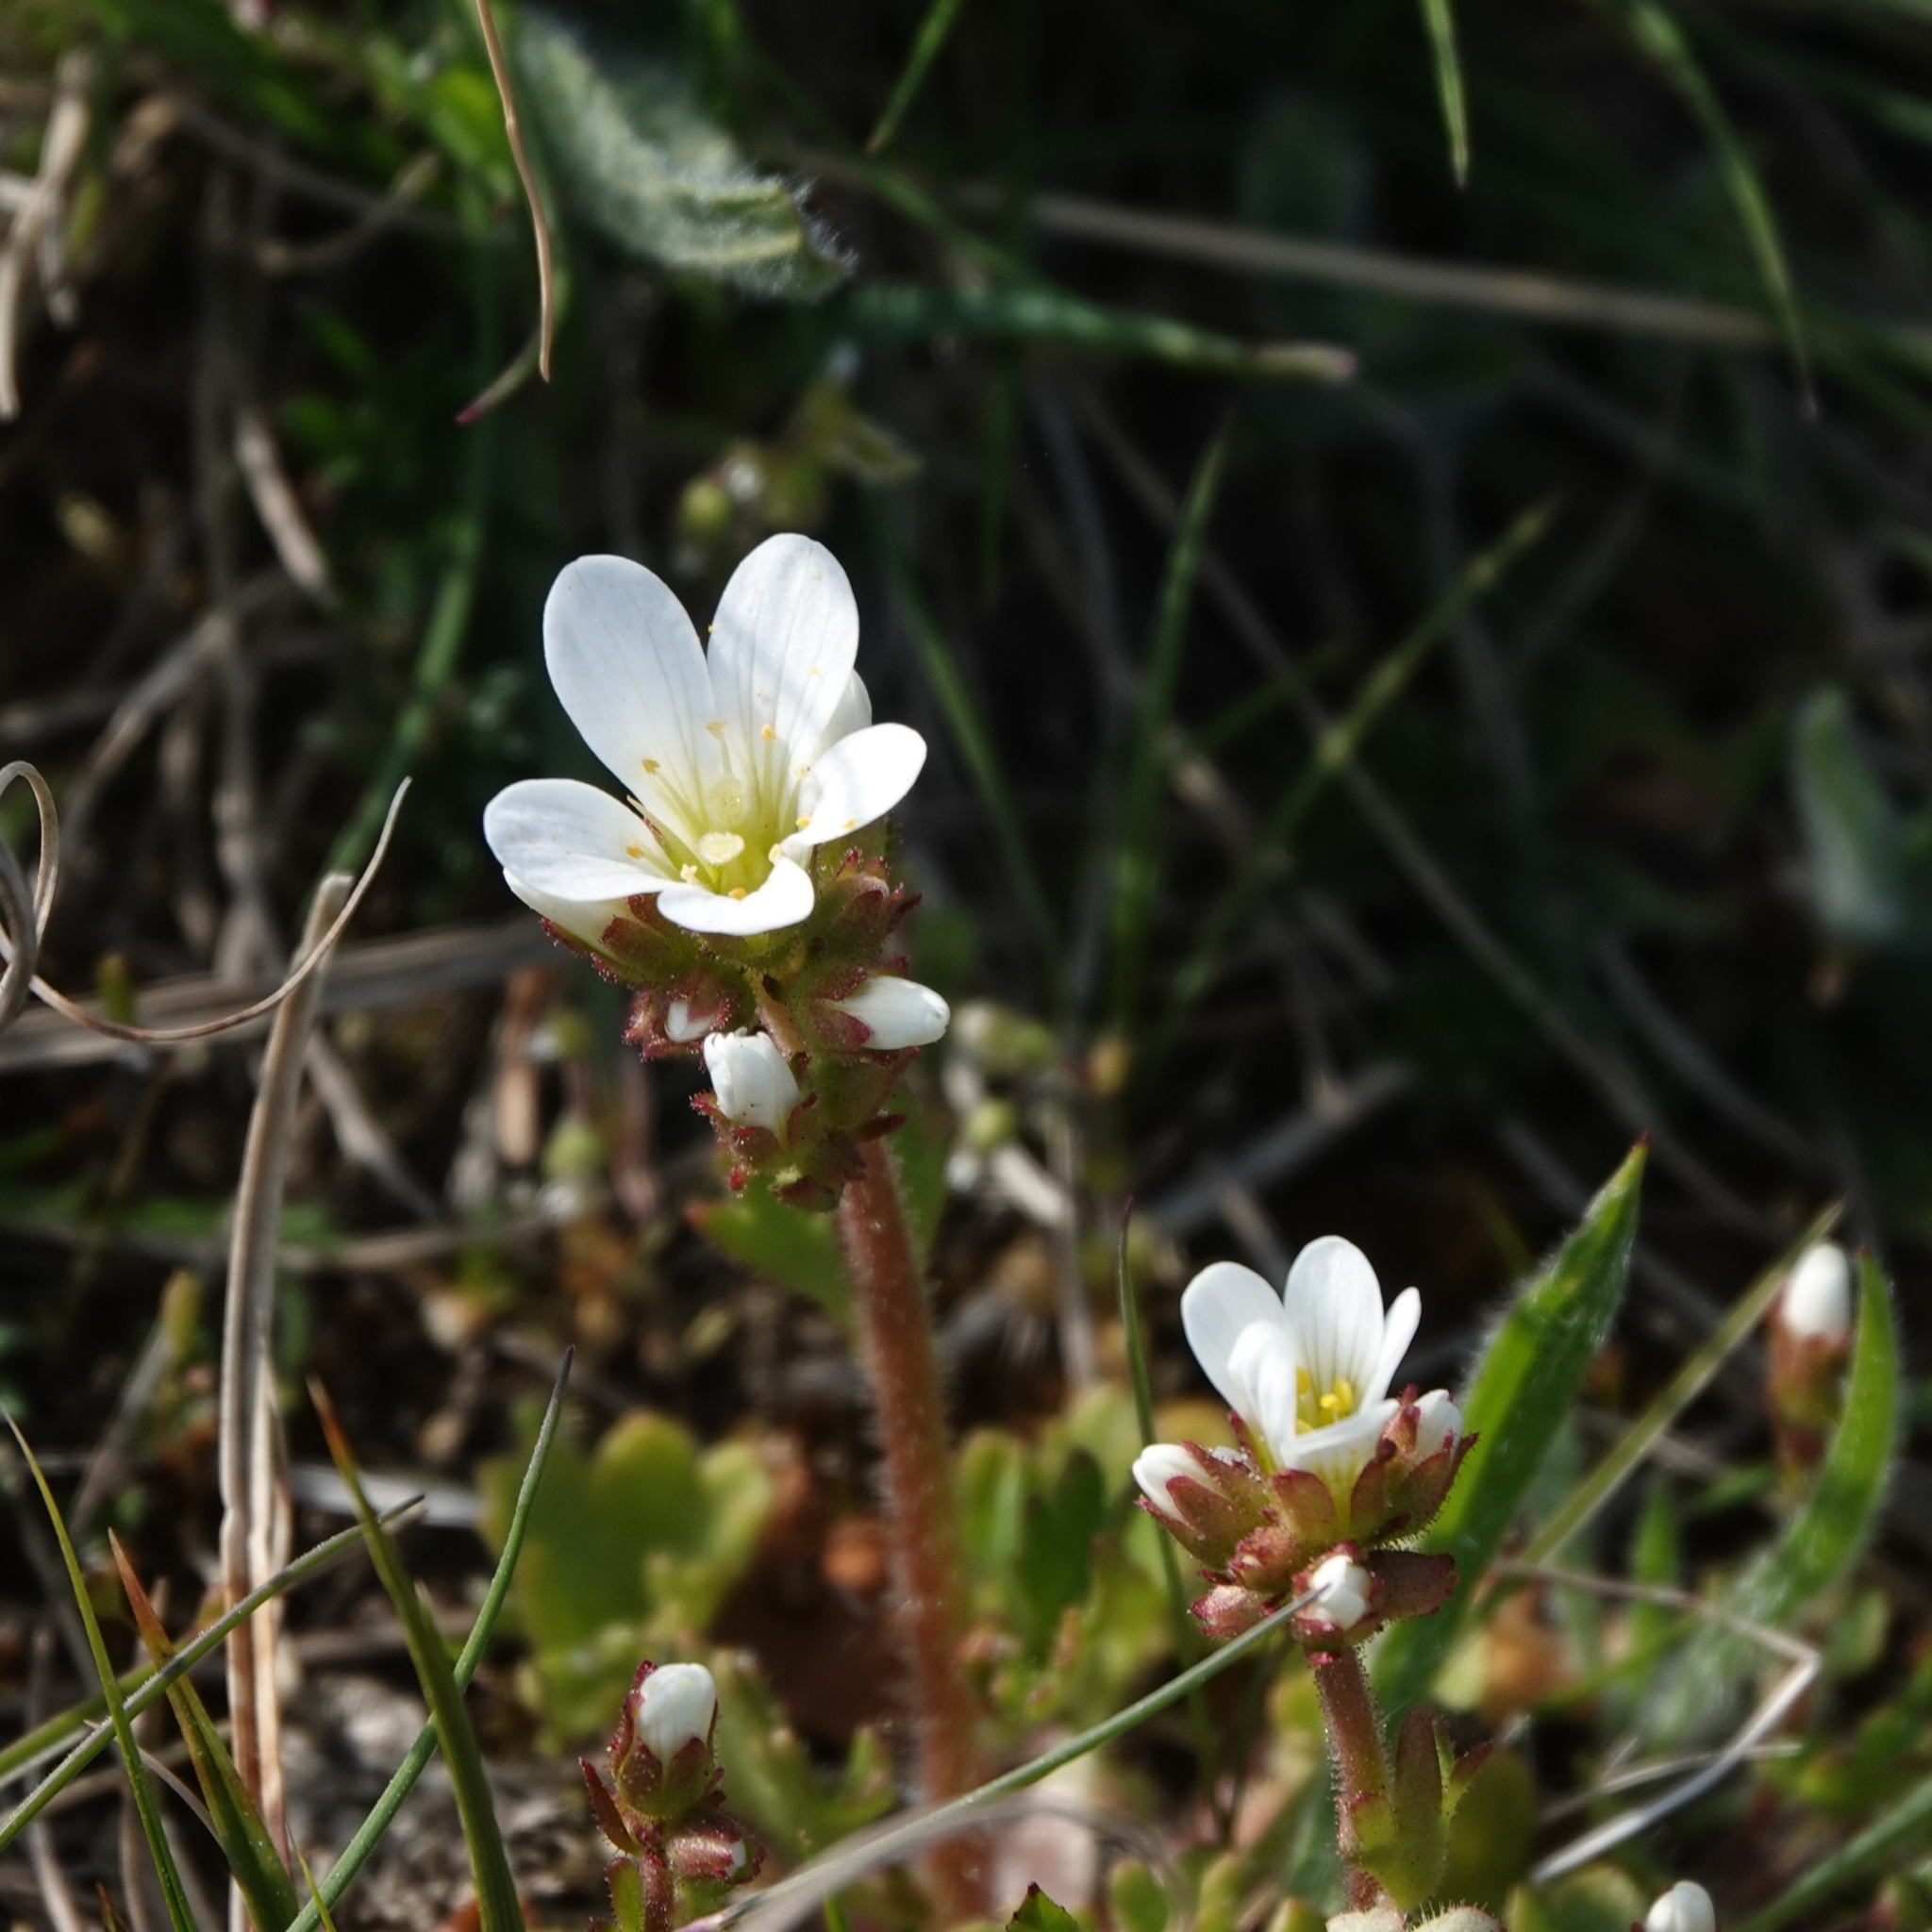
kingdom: Plantae
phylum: Tracheophyta
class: Magnoliopsida
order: Saxifragales
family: Saxifragaceae
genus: Saxifraga
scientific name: Saxifraga granulata
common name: Meadow saxifrage
